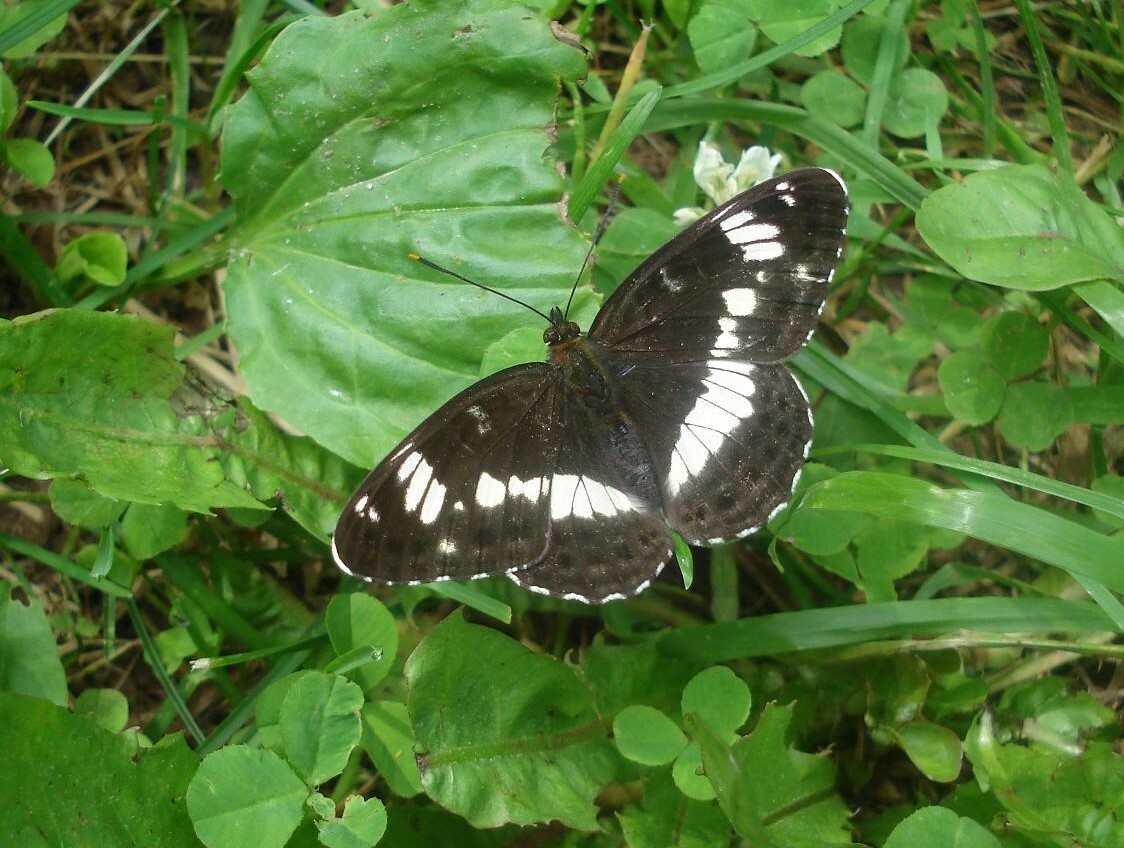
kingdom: Animalia
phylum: Arthropoda
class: Insecta
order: Lepidoptera
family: Nymphalidae
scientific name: Nymphalidae
